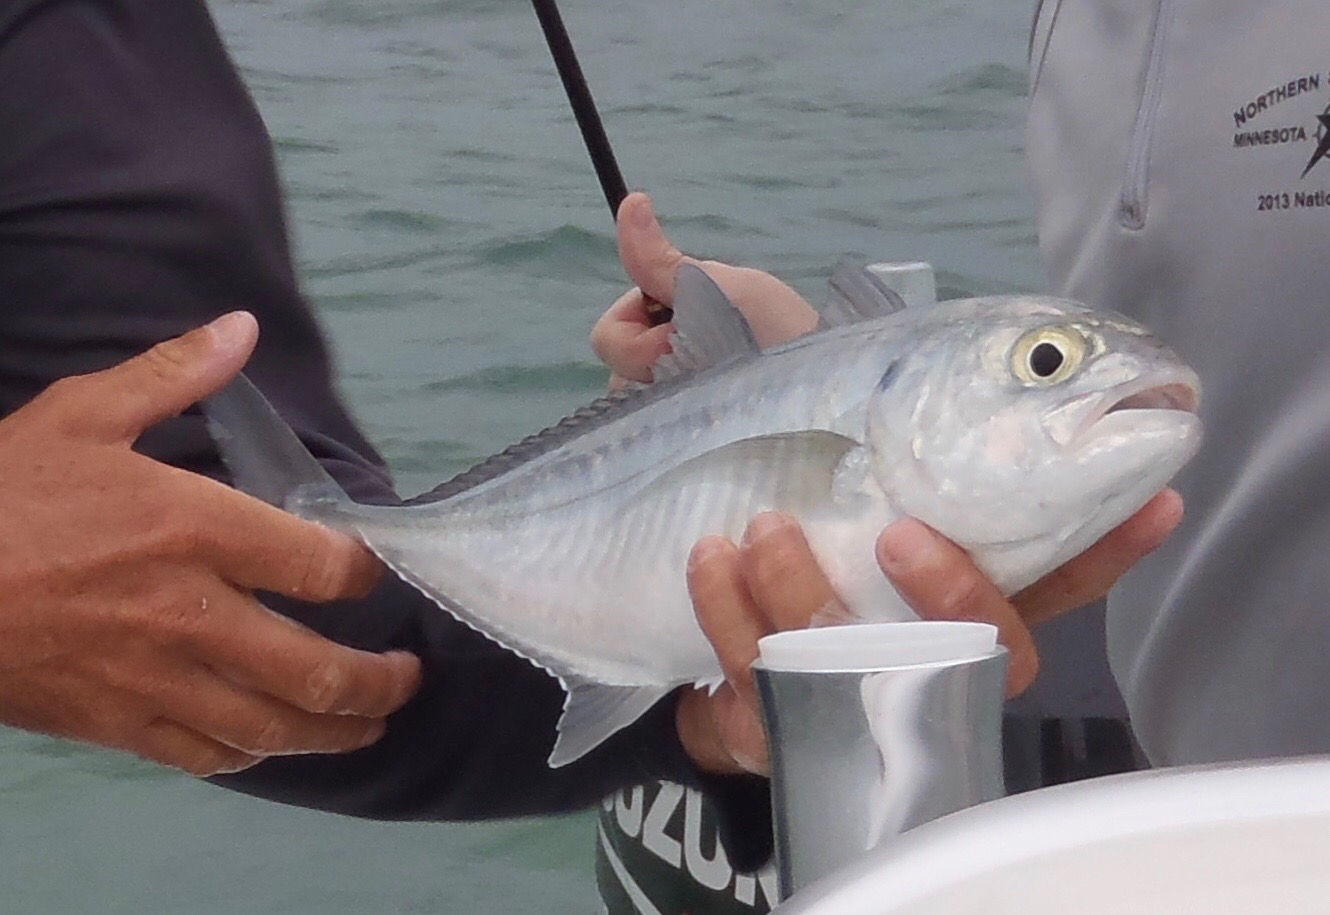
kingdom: Animalia
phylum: Chordata
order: Perciformes
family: Carangidae
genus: Caranx
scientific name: Caranx crysos
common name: Blue runner
